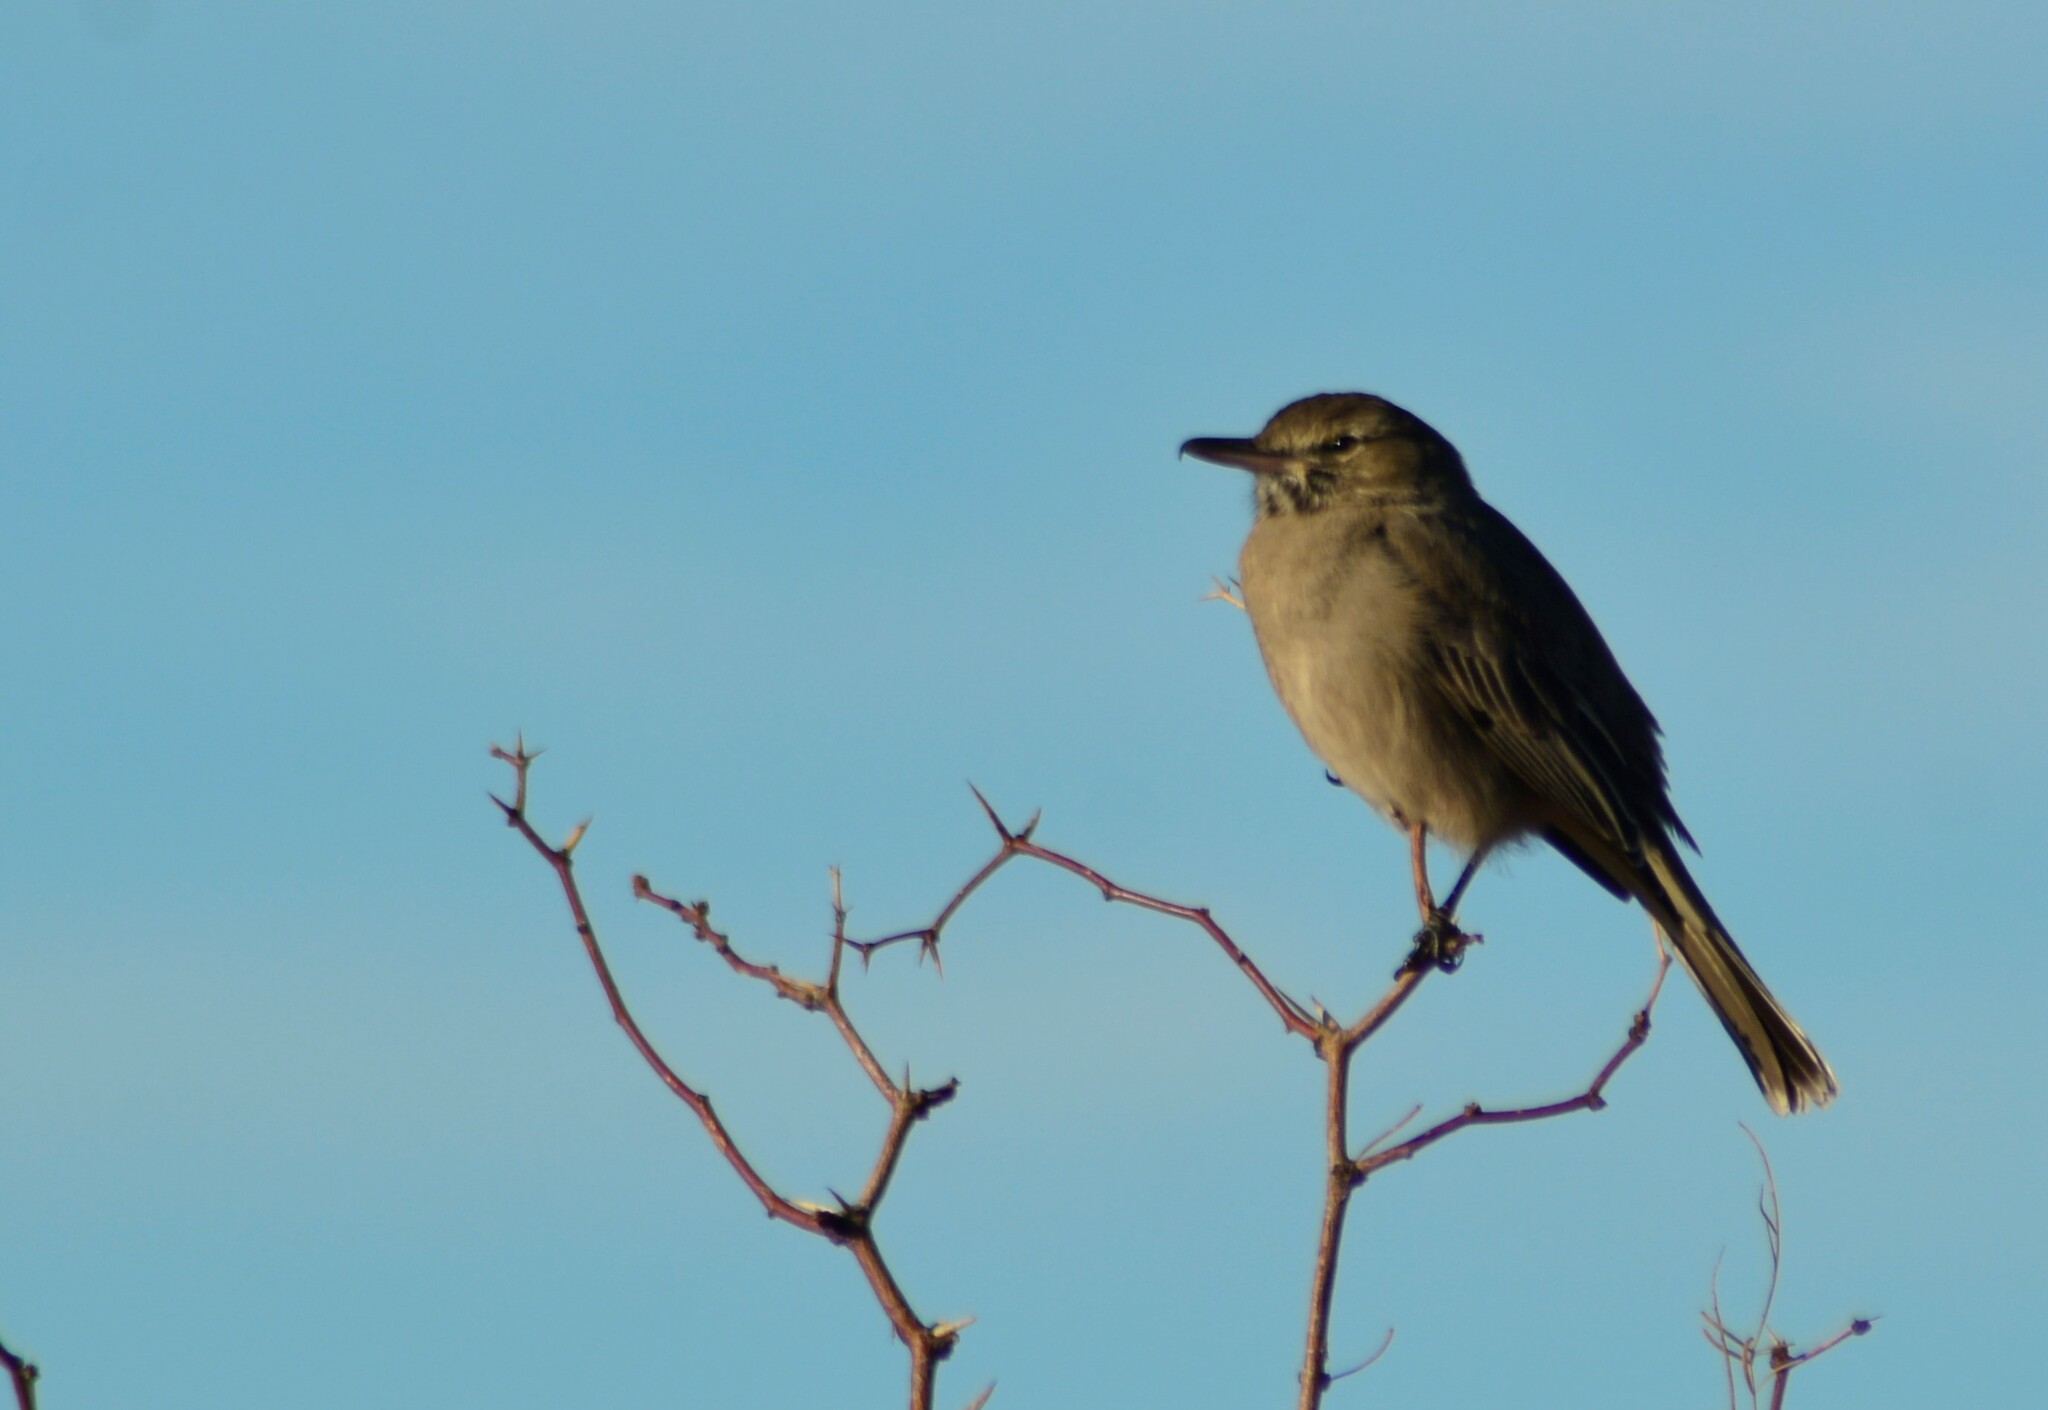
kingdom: Animalia
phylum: Chordata
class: Aves
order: Passeriformes
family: Tyrannidae
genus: Agriornis
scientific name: Agriornis micropterus
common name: Grey-bellied shrike-tyrant
